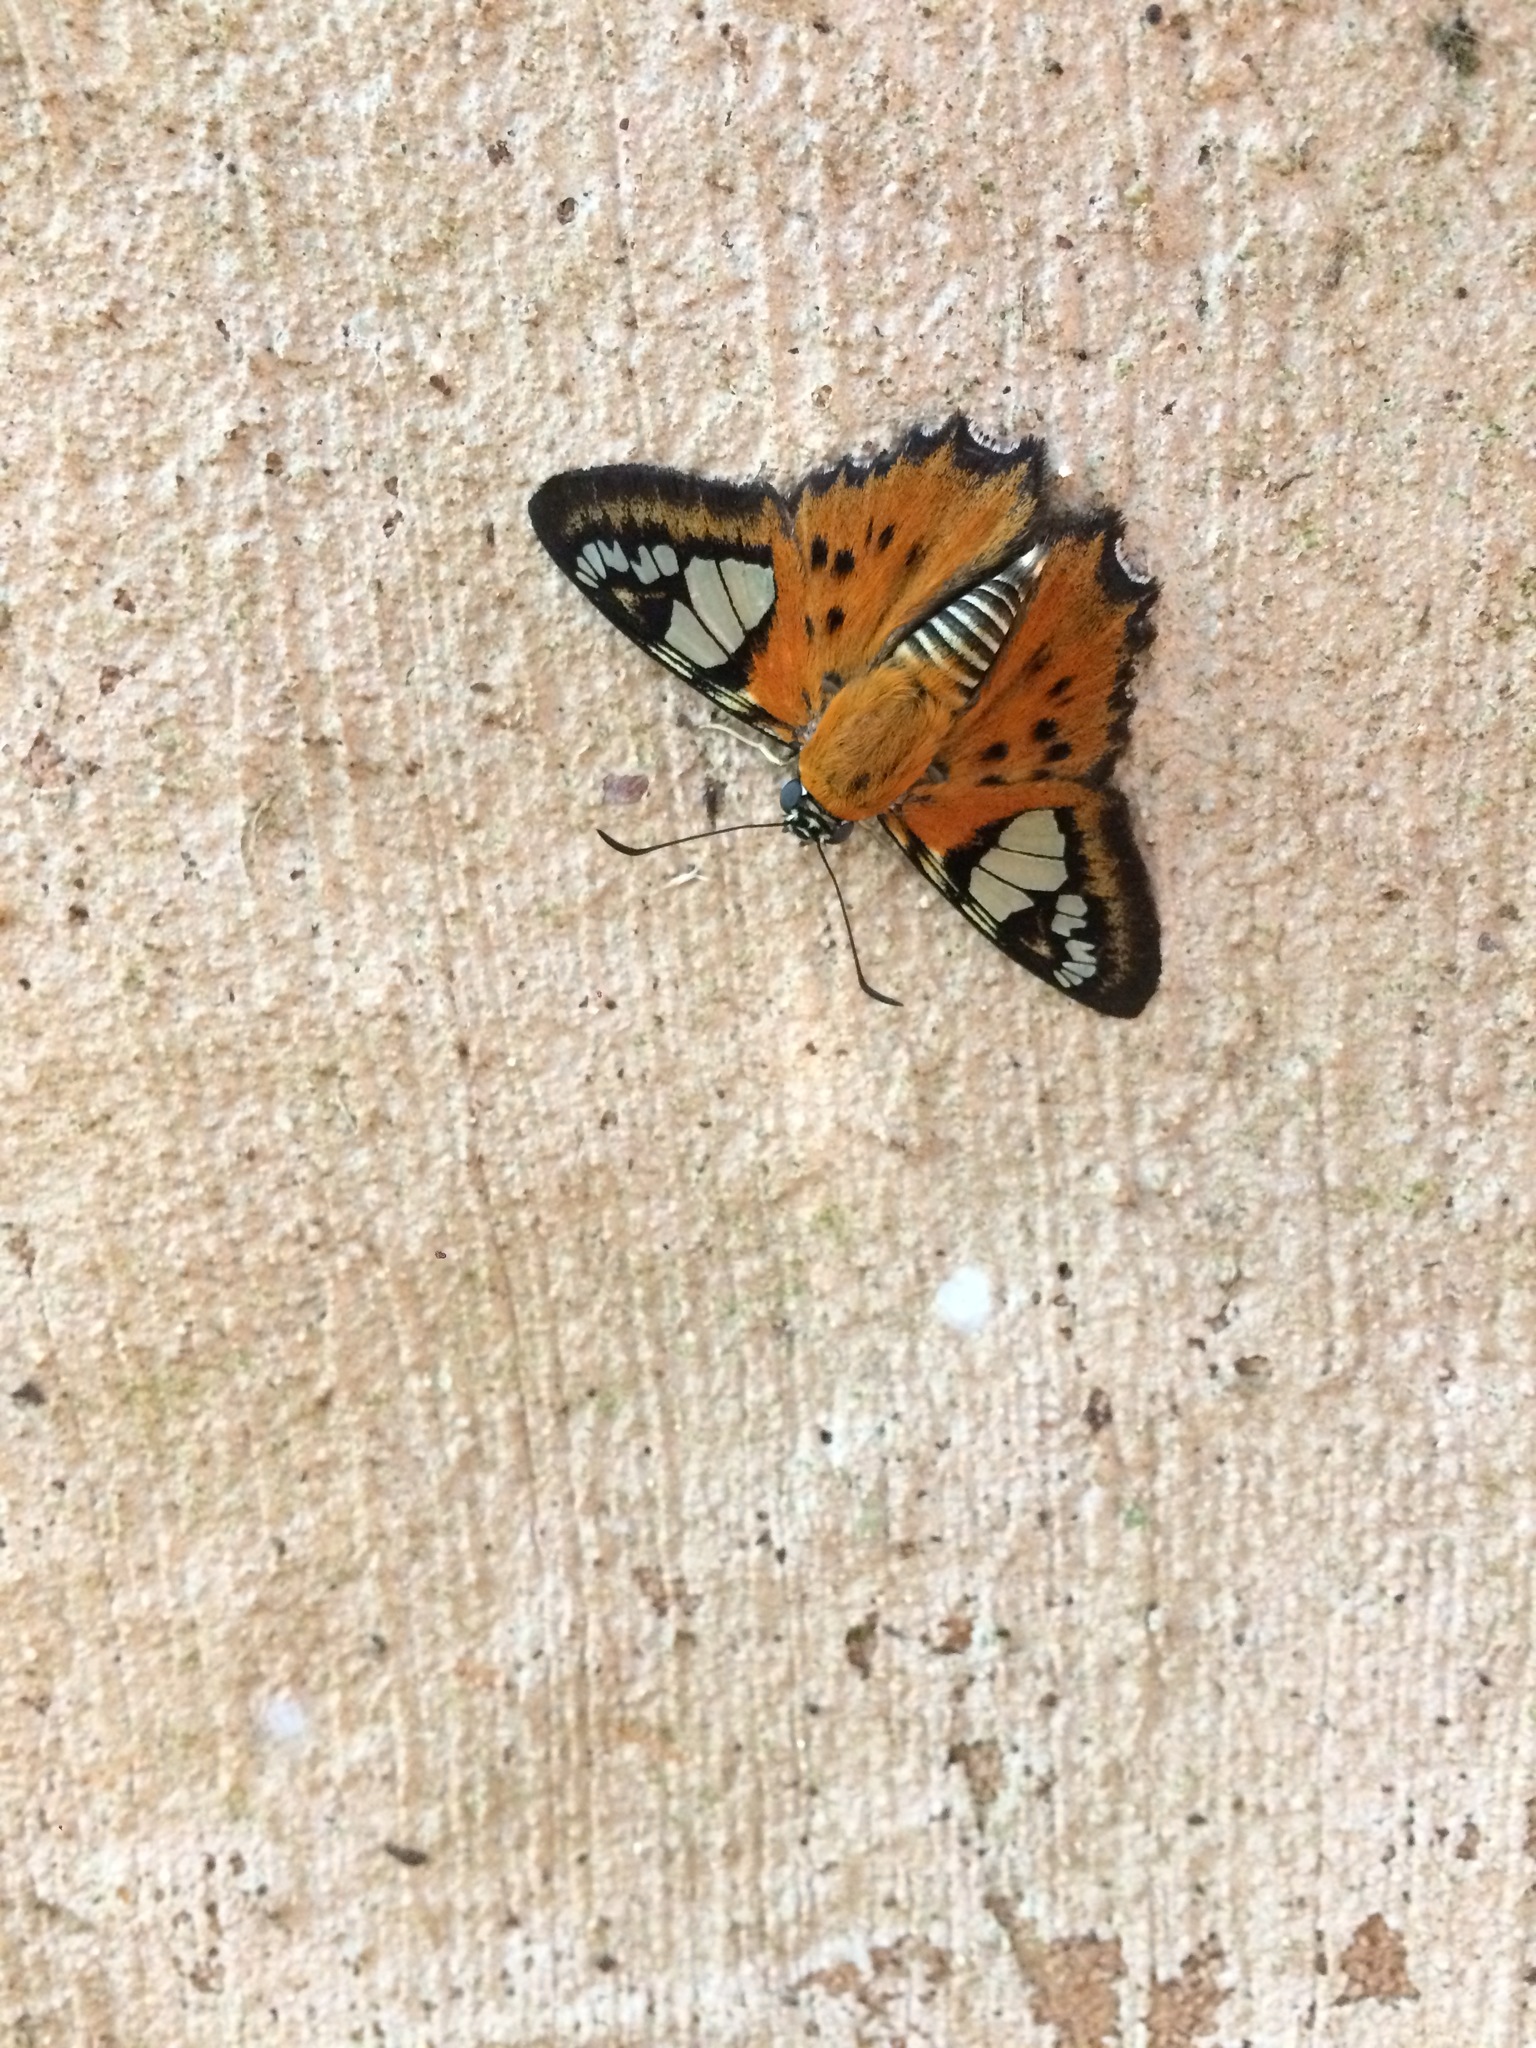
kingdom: Animalia
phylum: Arthropoda
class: Insecta
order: Lepidoptera
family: Hesperiidae
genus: Myscelus
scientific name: Myscelus pardalina
